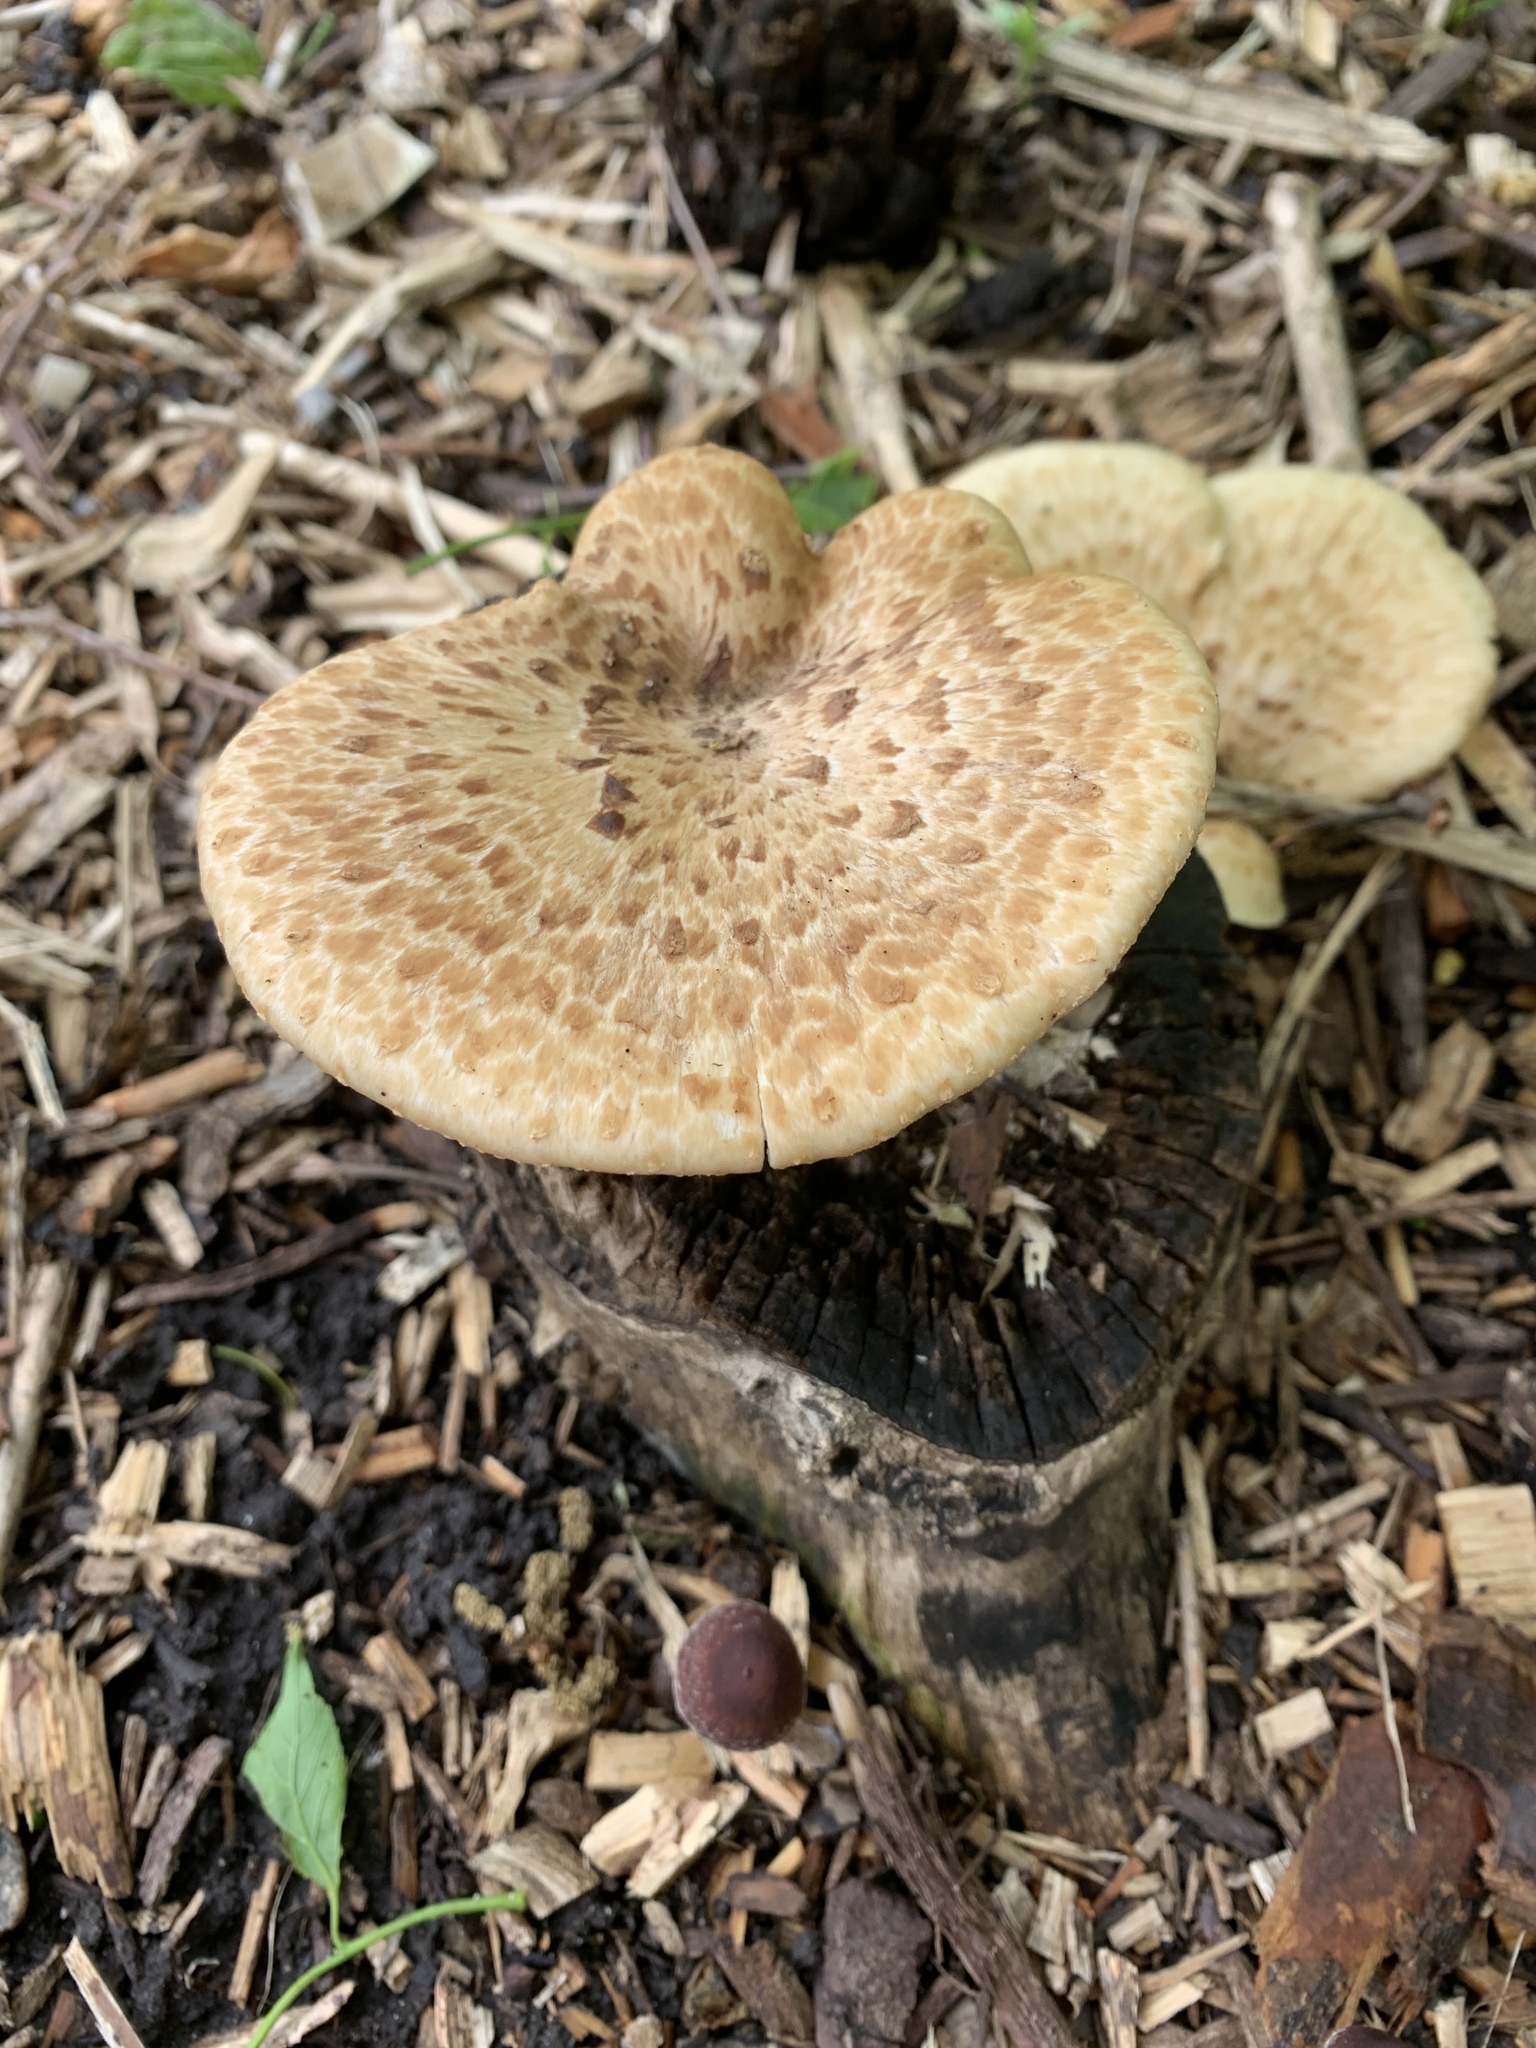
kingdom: Fungi
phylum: Basidiomycota
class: Agaricomycetes
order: Polyporales
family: Polyporaceae
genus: Cerioporus
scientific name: Cerioporus squamosus
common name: Dryad's saddle
